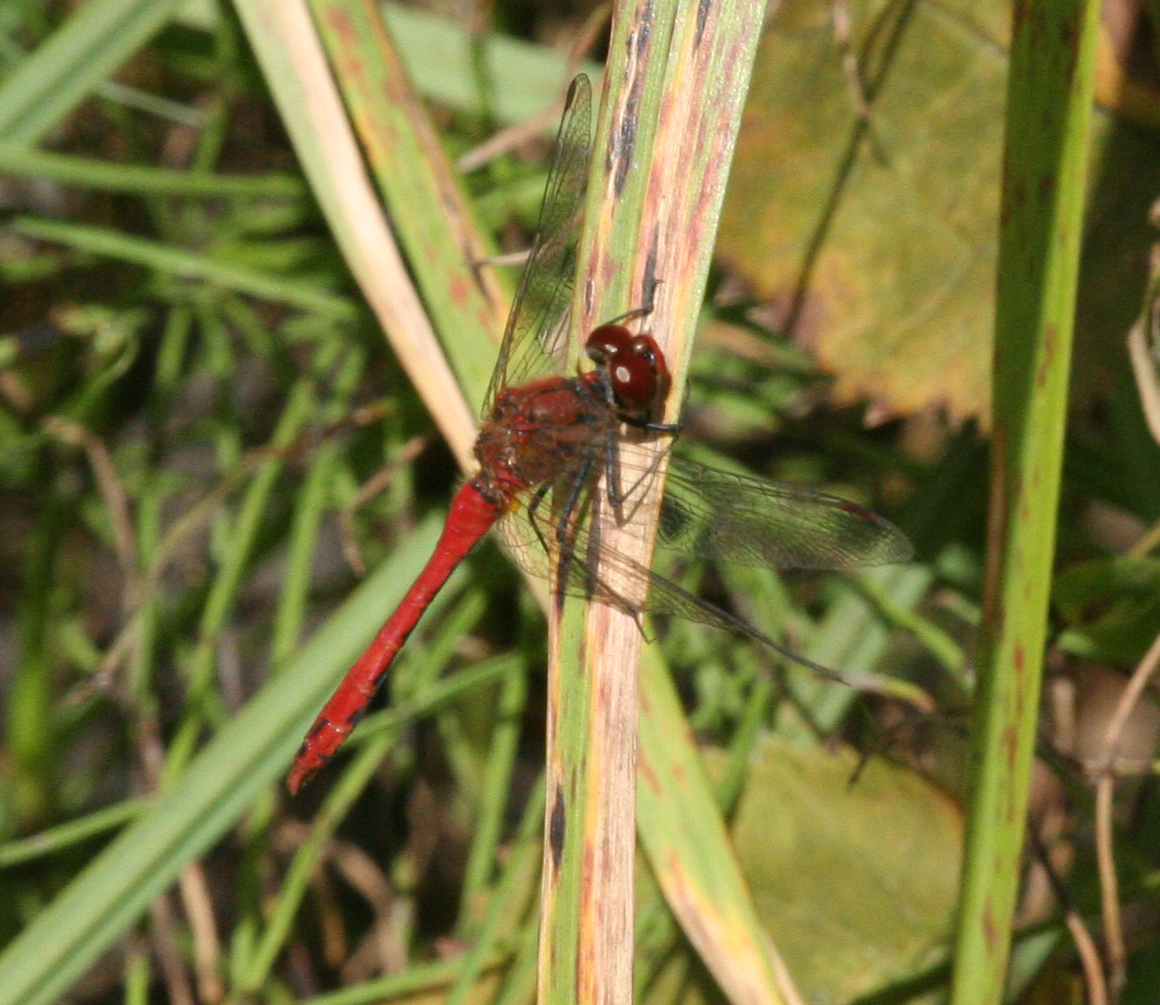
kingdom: Animalia
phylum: Arthropoda
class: Insecta
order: Odonata
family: Libellulidae
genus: Sympetrum
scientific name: Sympetrum sanguineum
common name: Ruddy darter
